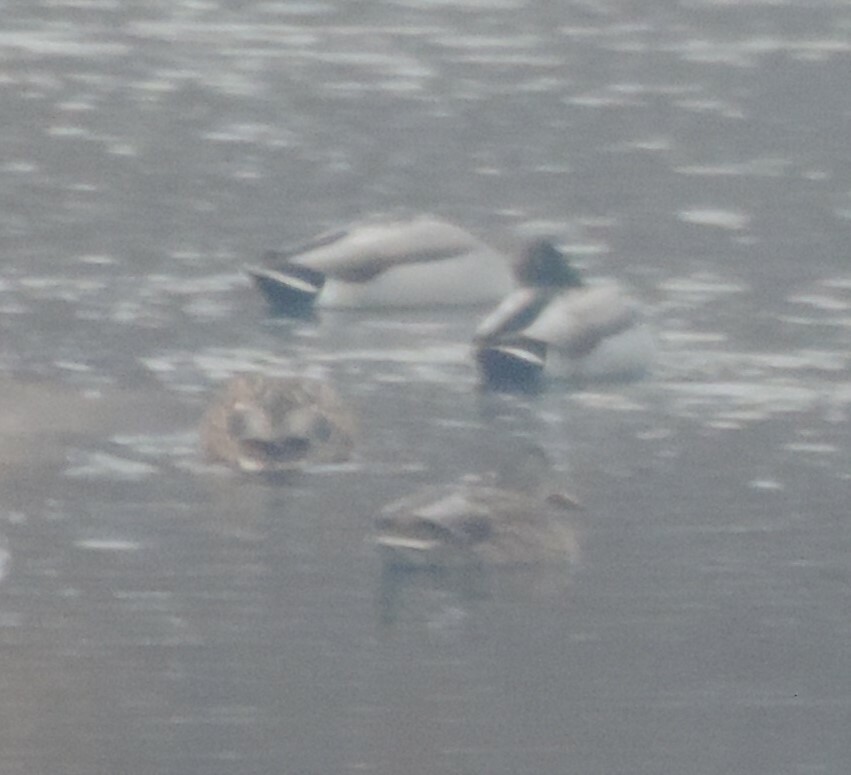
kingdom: Animalia
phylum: Chordata
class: Aves
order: Anseriformes
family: Anatidae
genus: Anas
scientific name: Anas platyrhynchos
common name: Mallard
